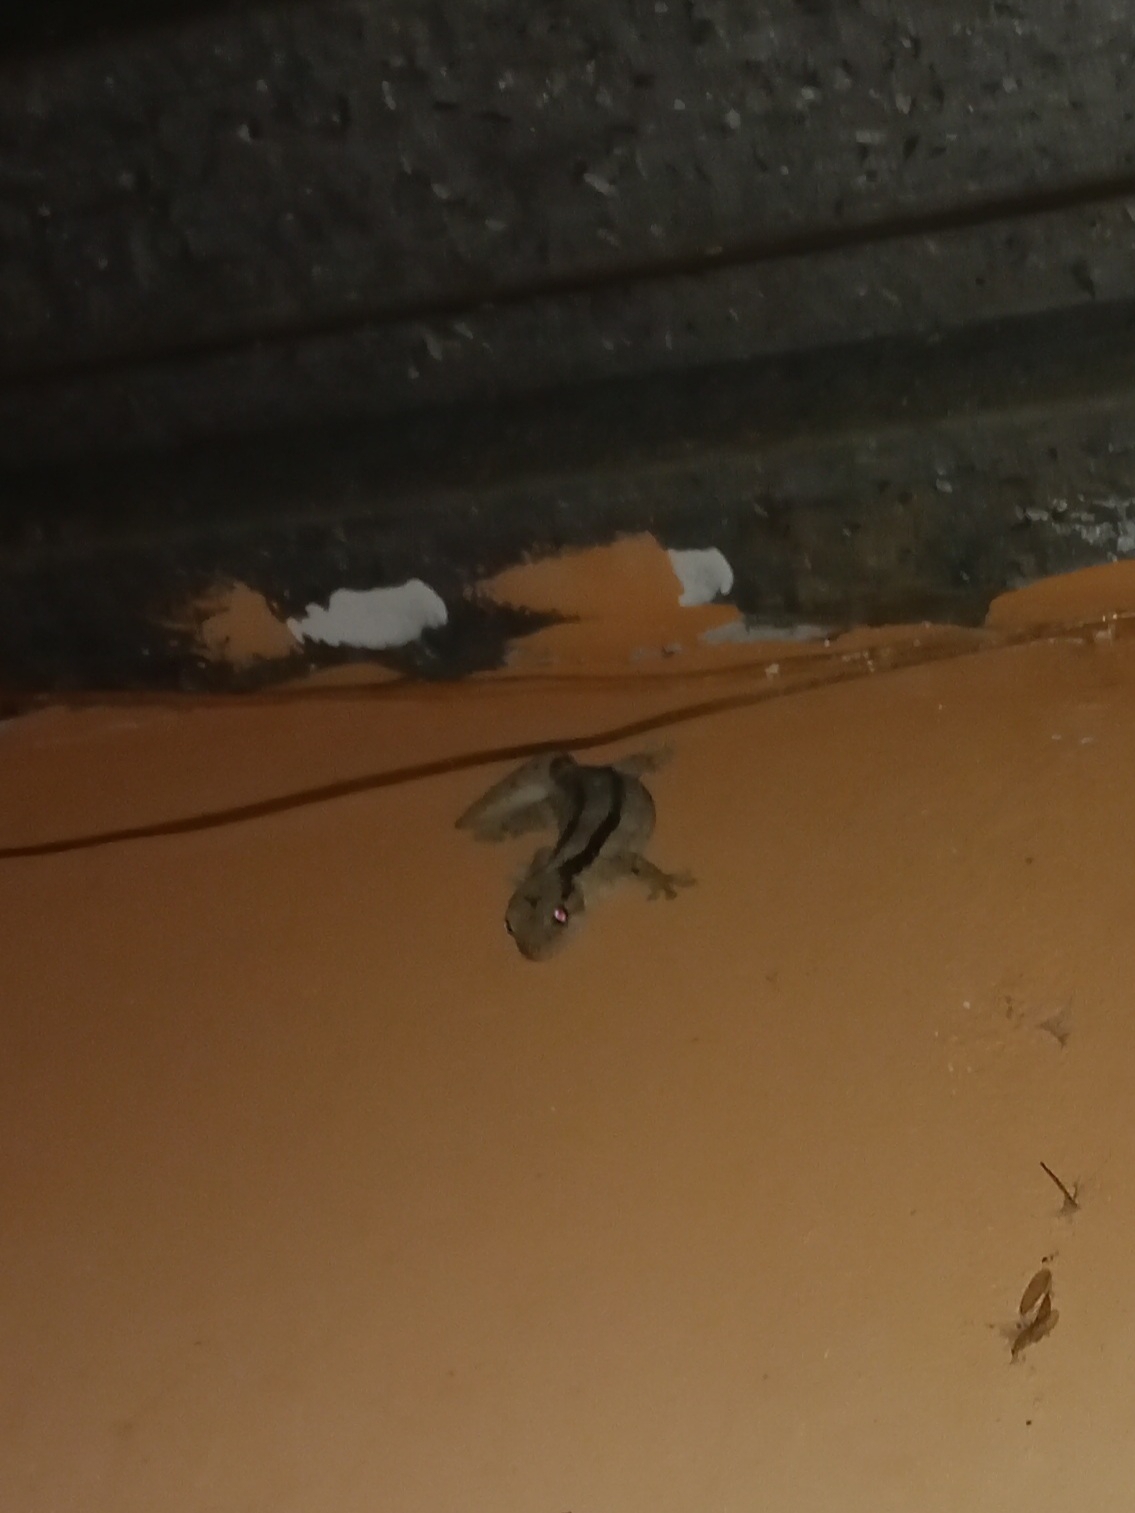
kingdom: Animalia
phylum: Chordata
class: Squamata
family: Gekkonidae
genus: Homopholis
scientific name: Homopholis arnoldi
